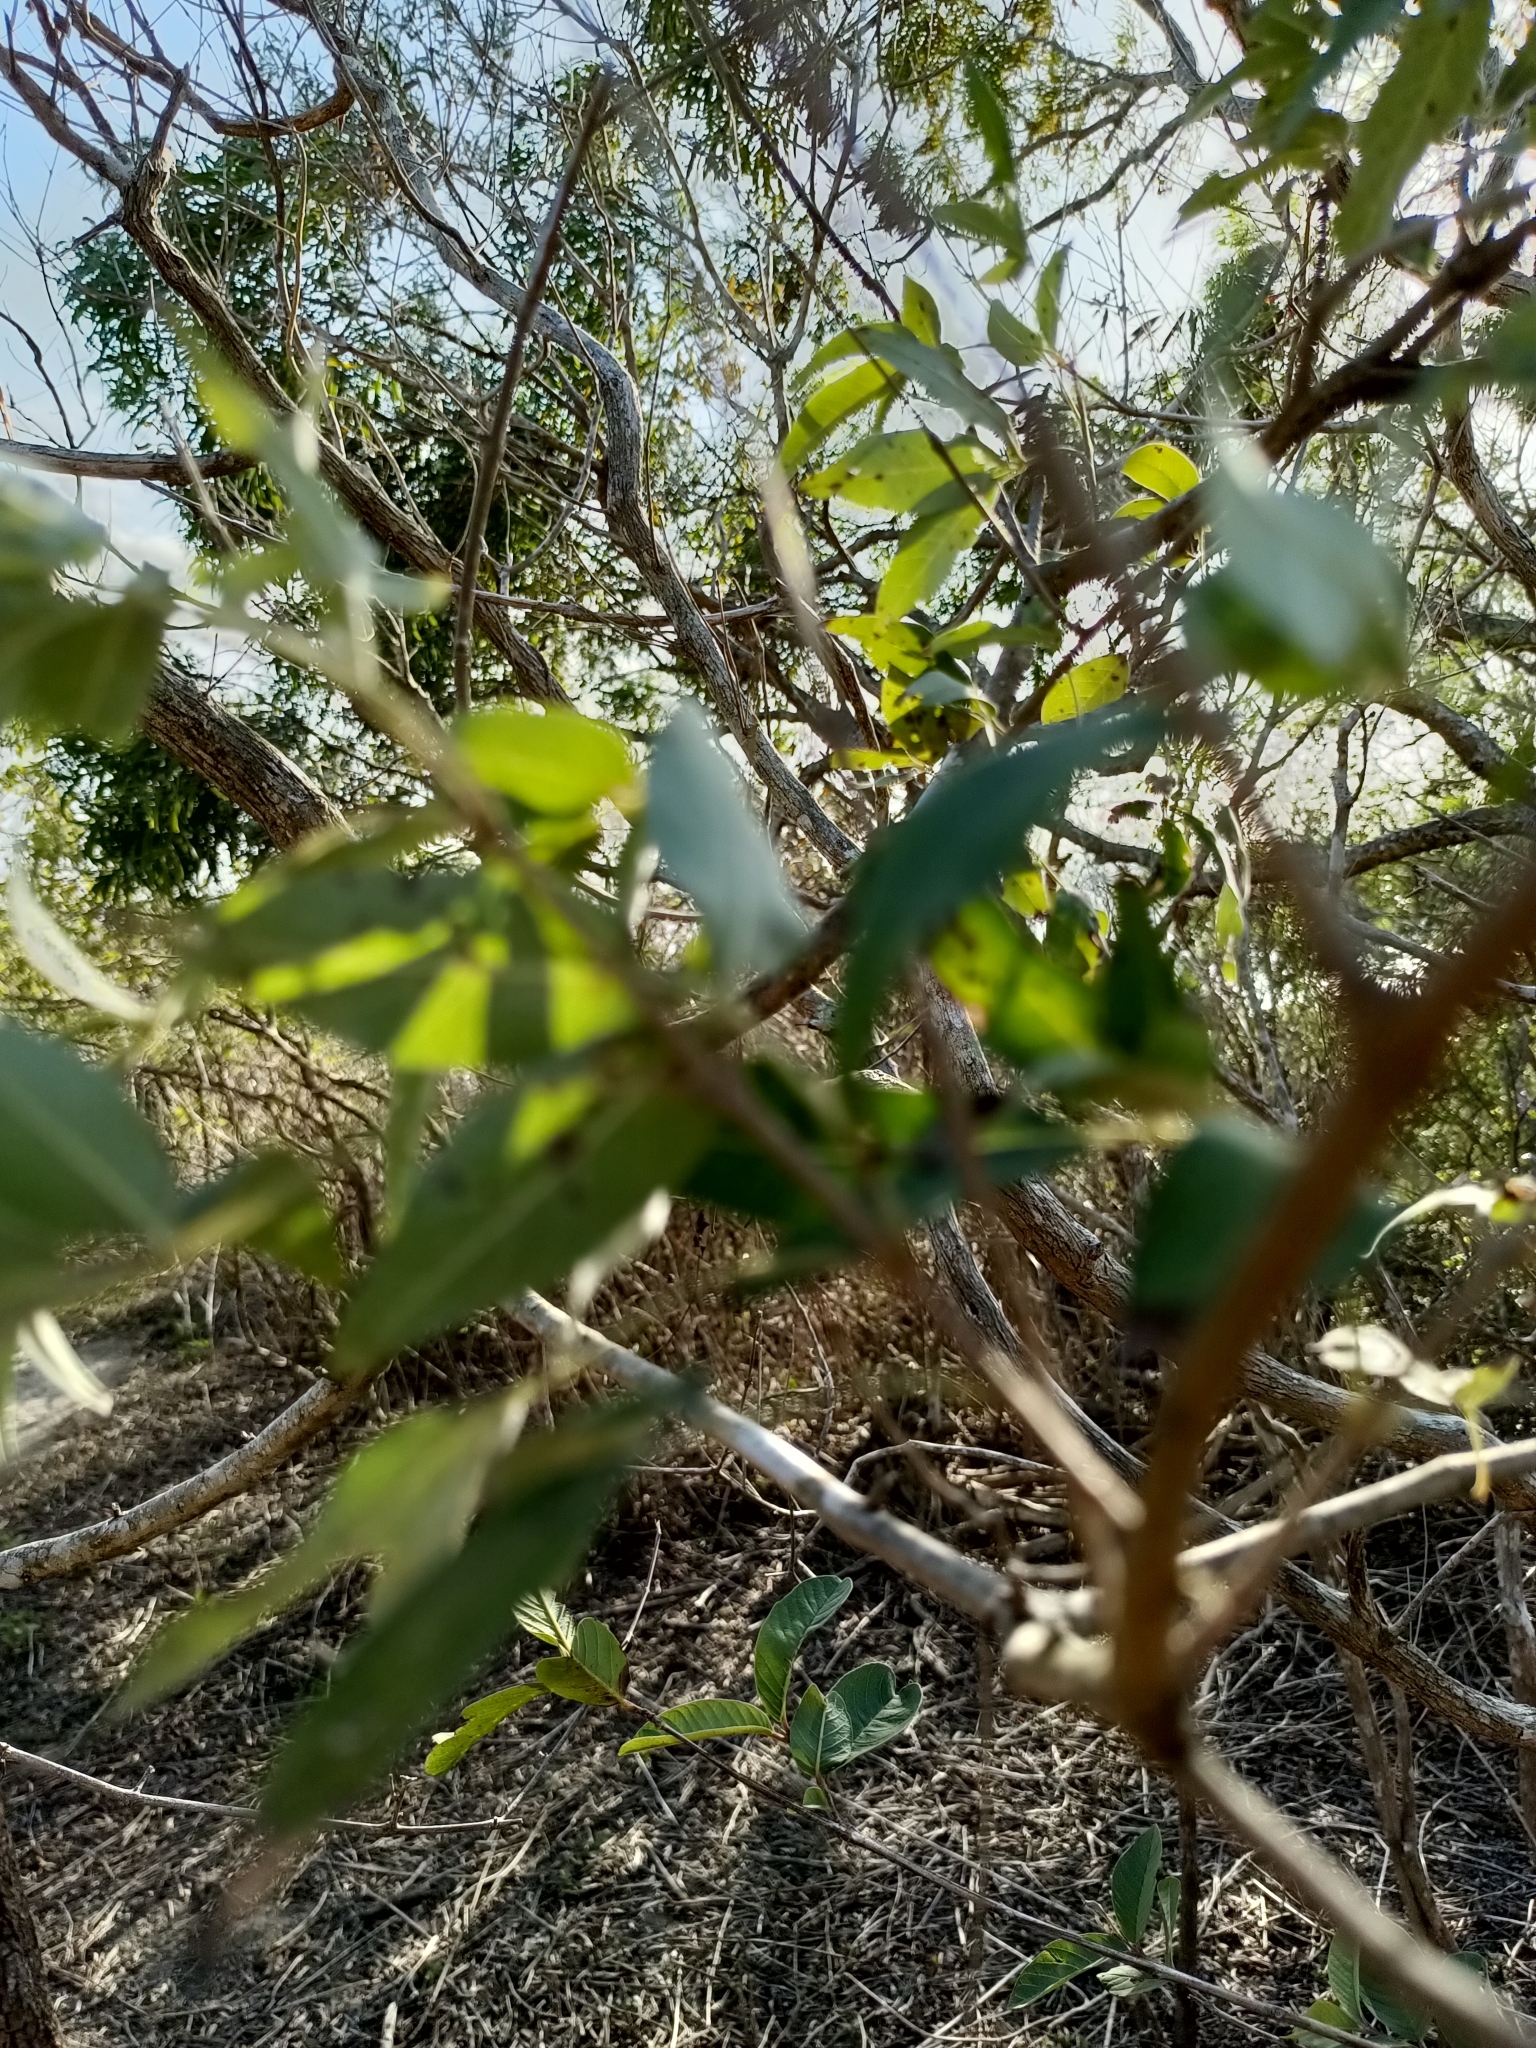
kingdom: Plantae
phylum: Tracheophyta
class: Magnoliopsida
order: Lamiales
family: Lamiaceae
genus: Vitex
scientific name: Vitex negundo
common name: Chinese chastetree
